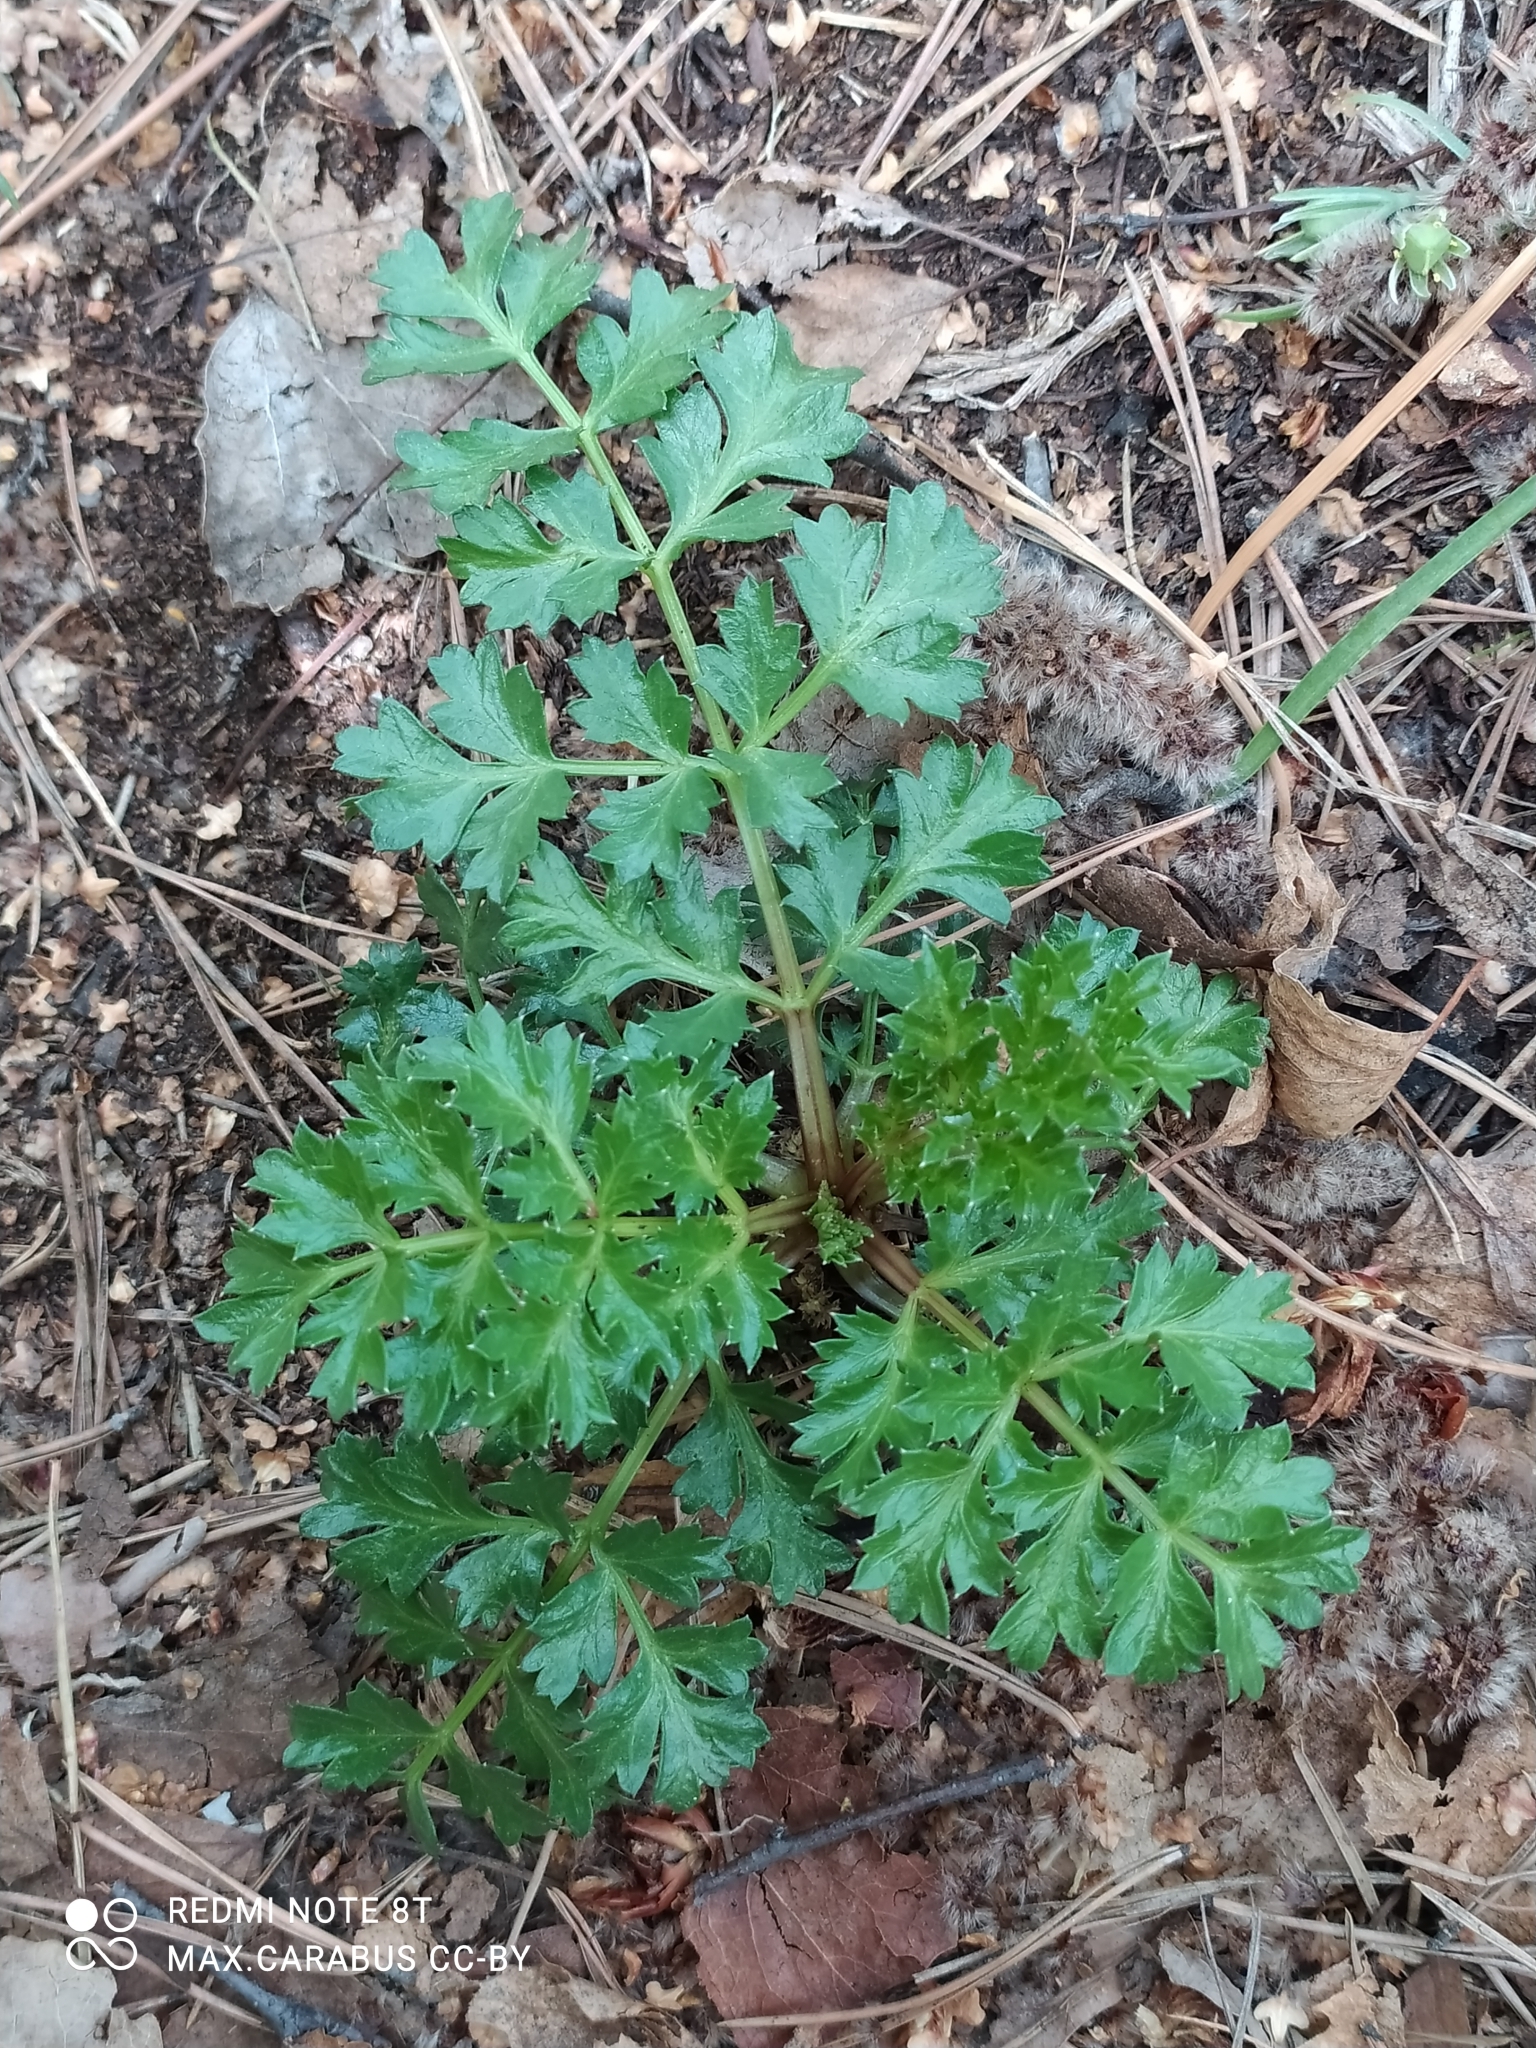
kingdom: Plantae
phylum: Tracheophyta
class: Magnoliopsida
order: Apiales
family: Apiaceae
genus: Seseli
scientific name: Seseli buchtormense
